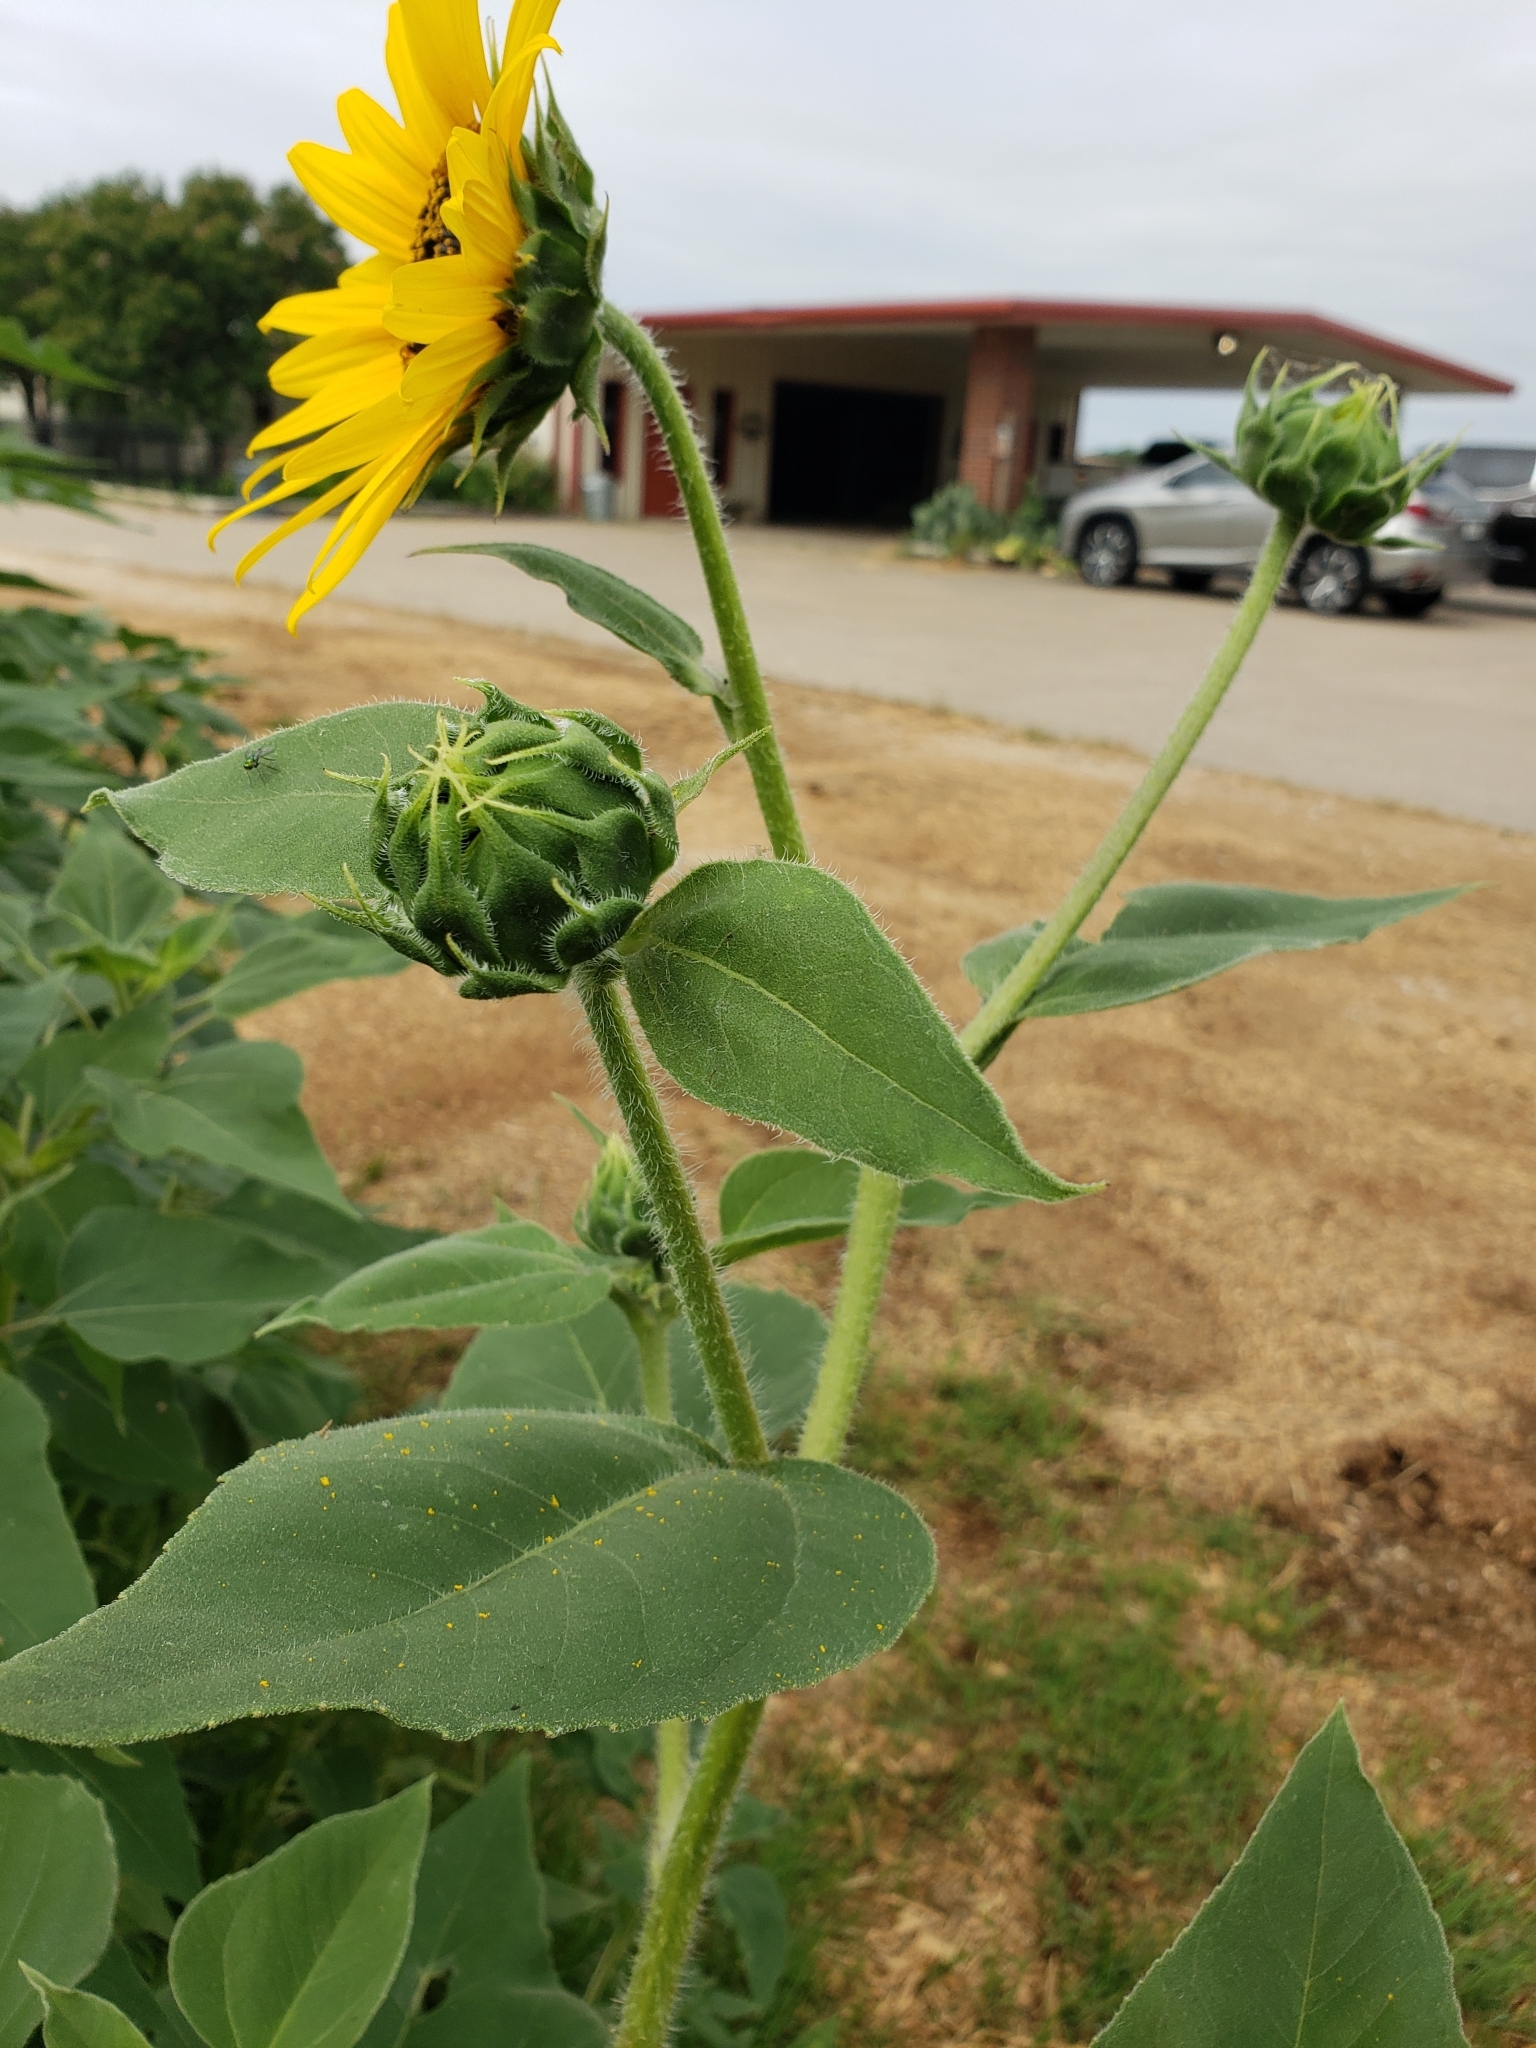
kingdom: Plantae
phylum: Tracheophyta
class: Magnoliopsida
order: Asterales
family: Asteraceae
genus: Helianthus
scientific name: Helianthus annuus
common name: Sunflower
